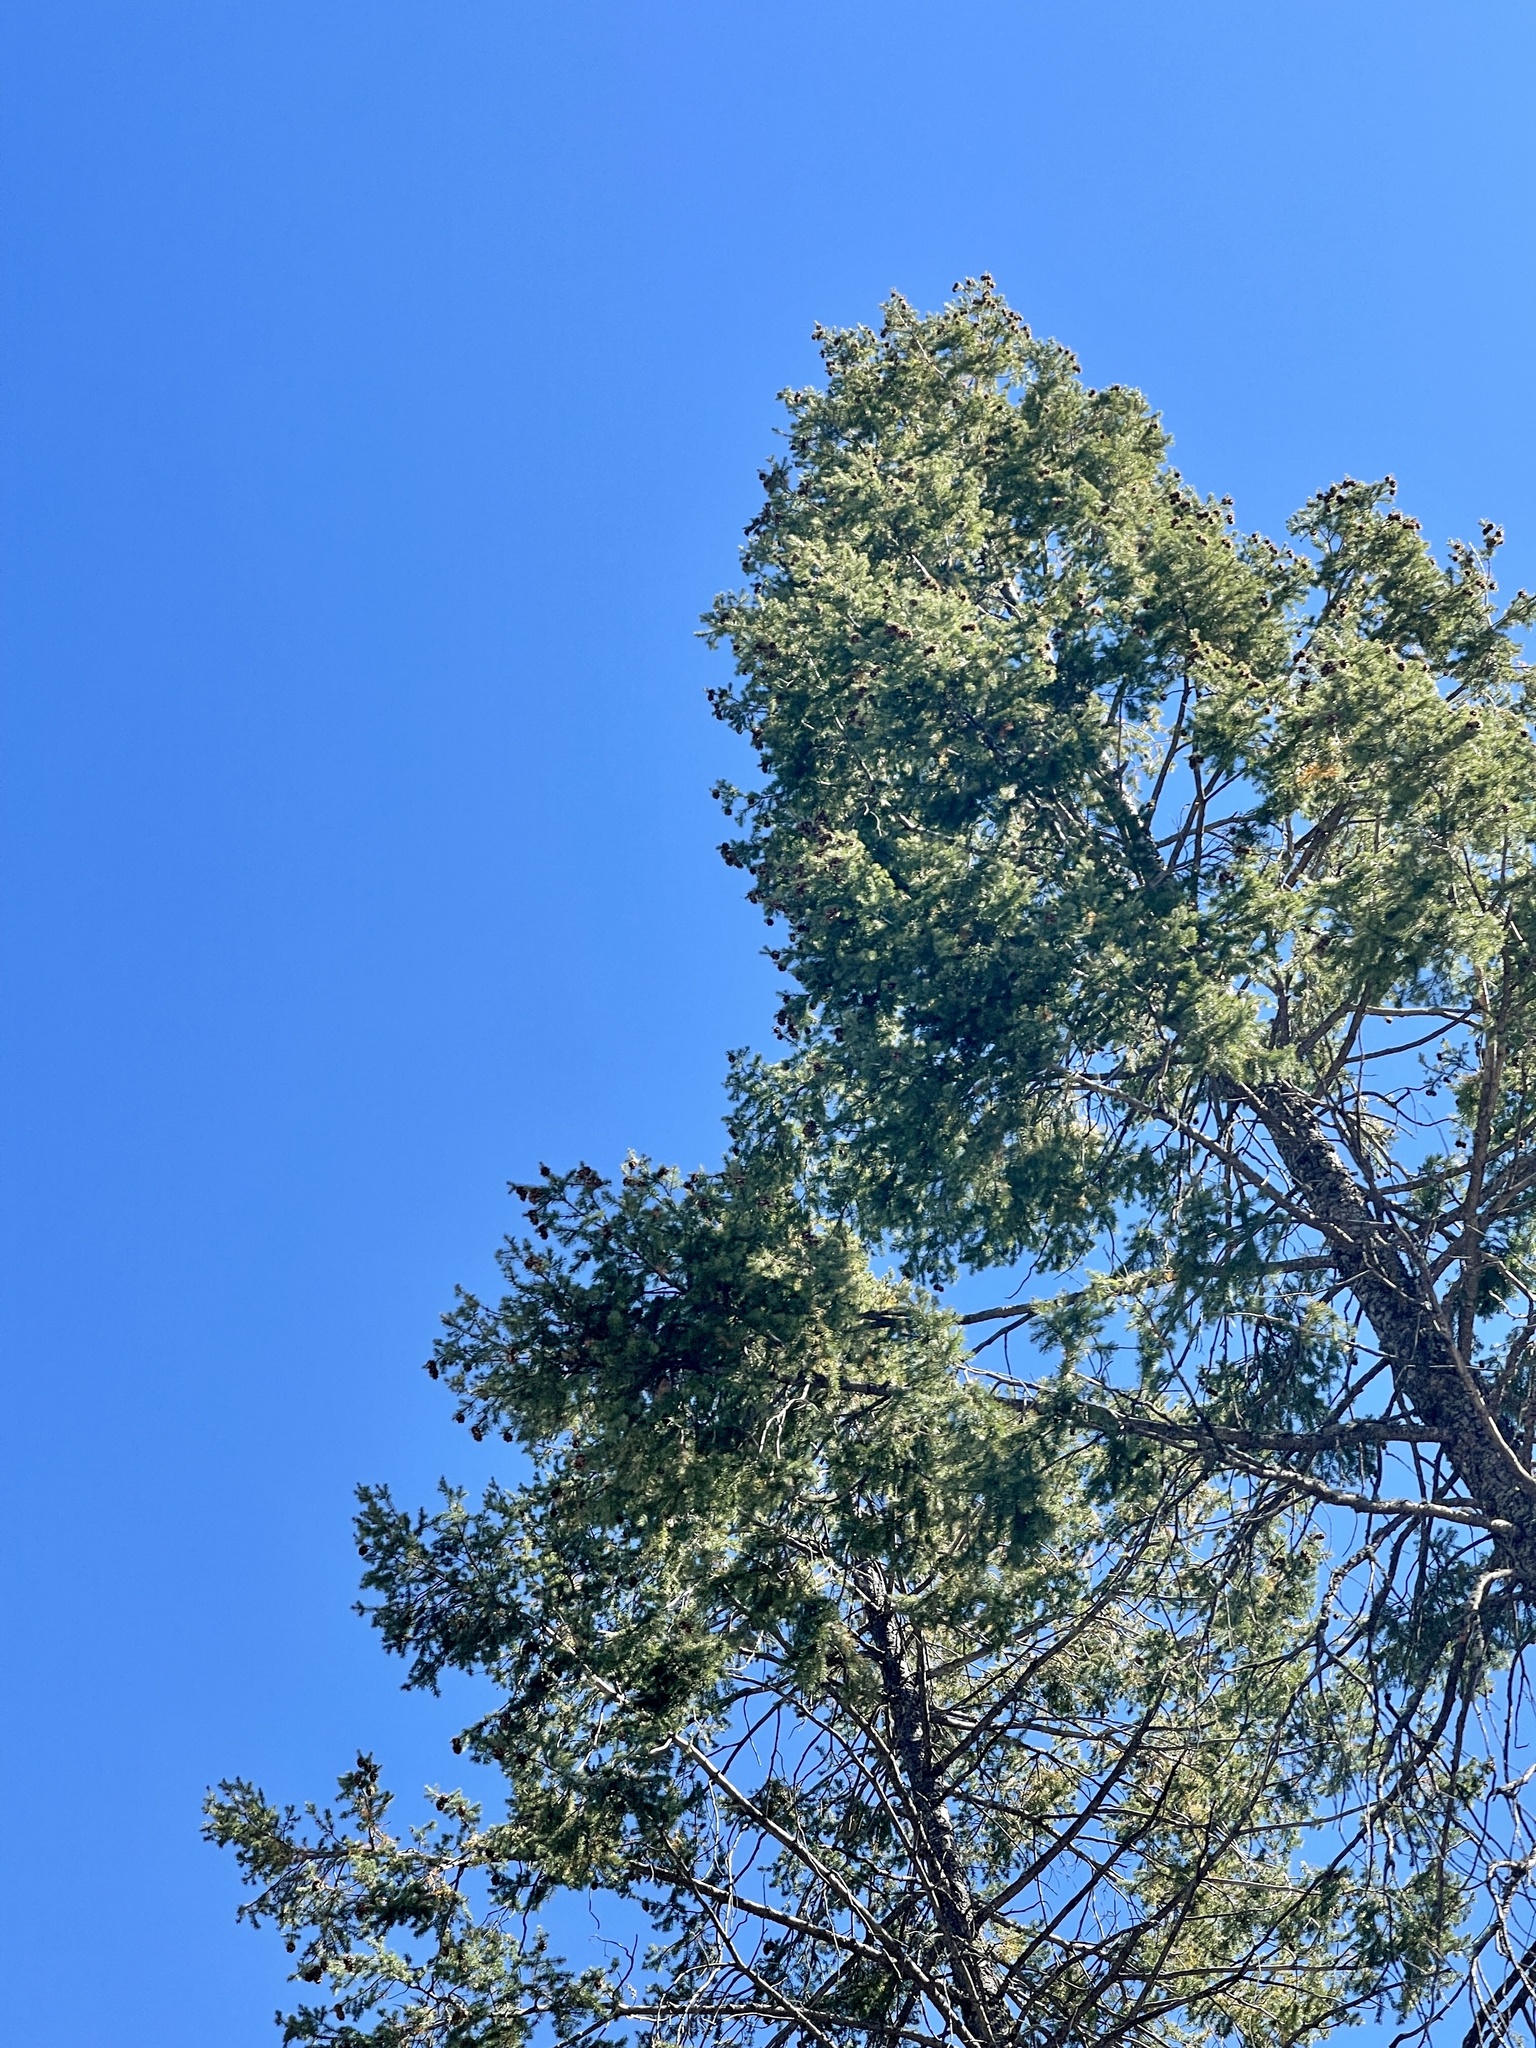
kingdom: Plantae
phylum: Tracheophyta
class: Pinopsida
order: Pinales
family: Pinaceae
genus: Pseudotsuga
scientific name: Pseudotsuga menziesii
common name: Douglas fir
